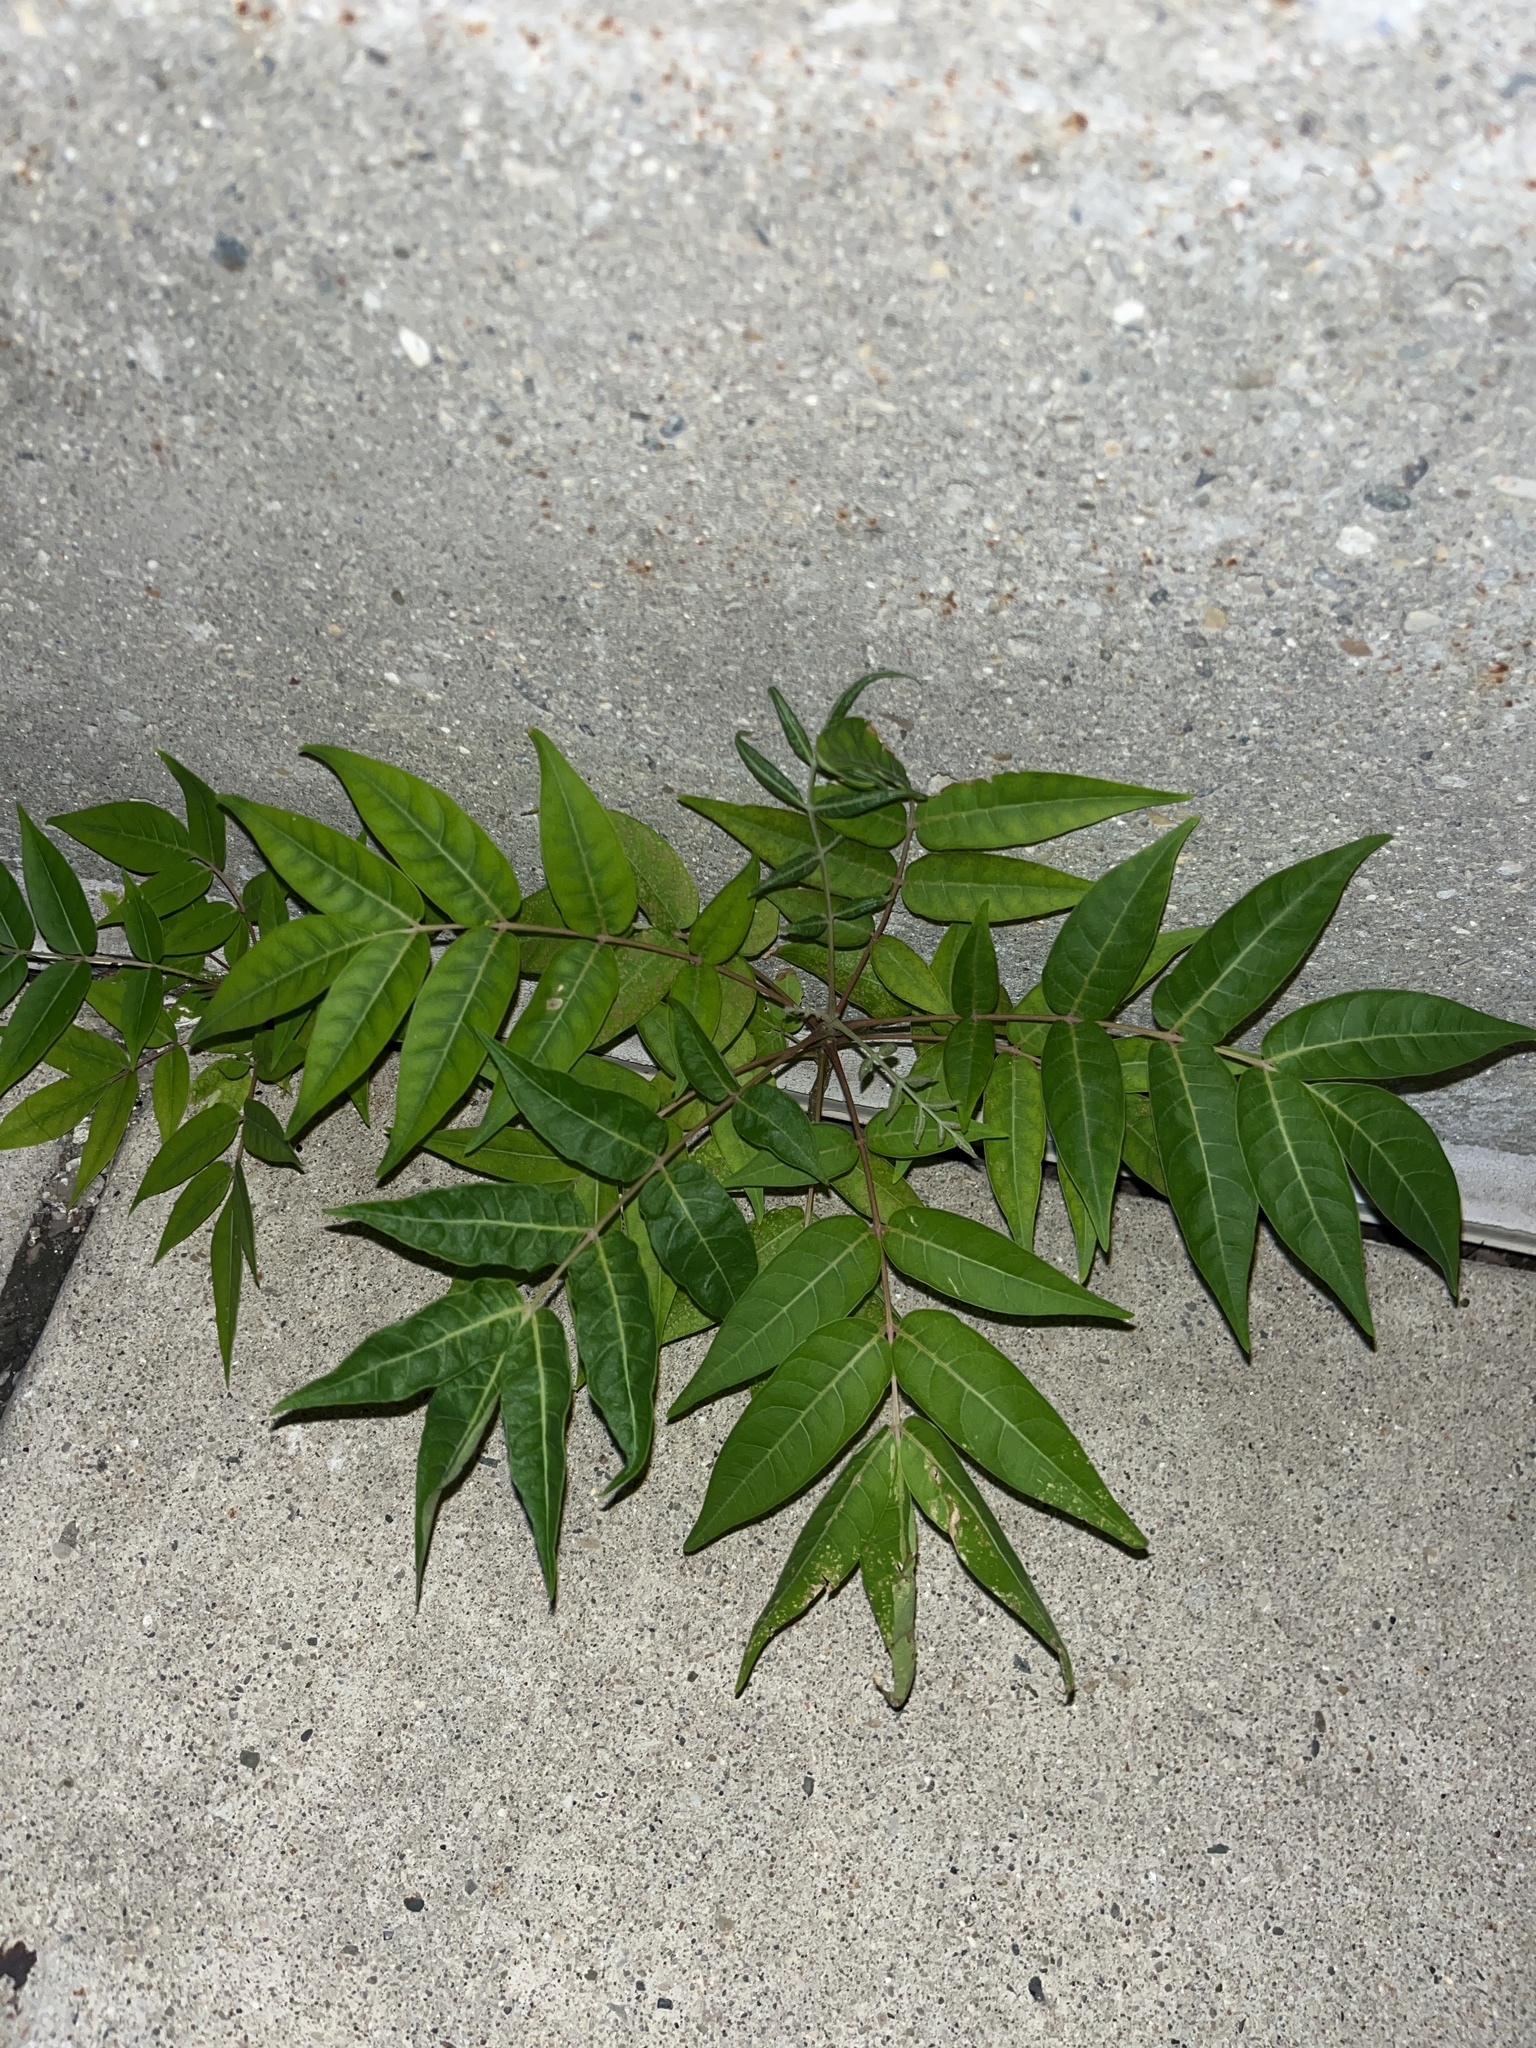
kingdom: Plantae
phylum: Tracheophyta
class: Magnoliopsida
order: Sapindales
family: Simaroubaceae
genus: Ailanthus
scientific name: Ailanthus altissima
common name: Tree-of-heaven
